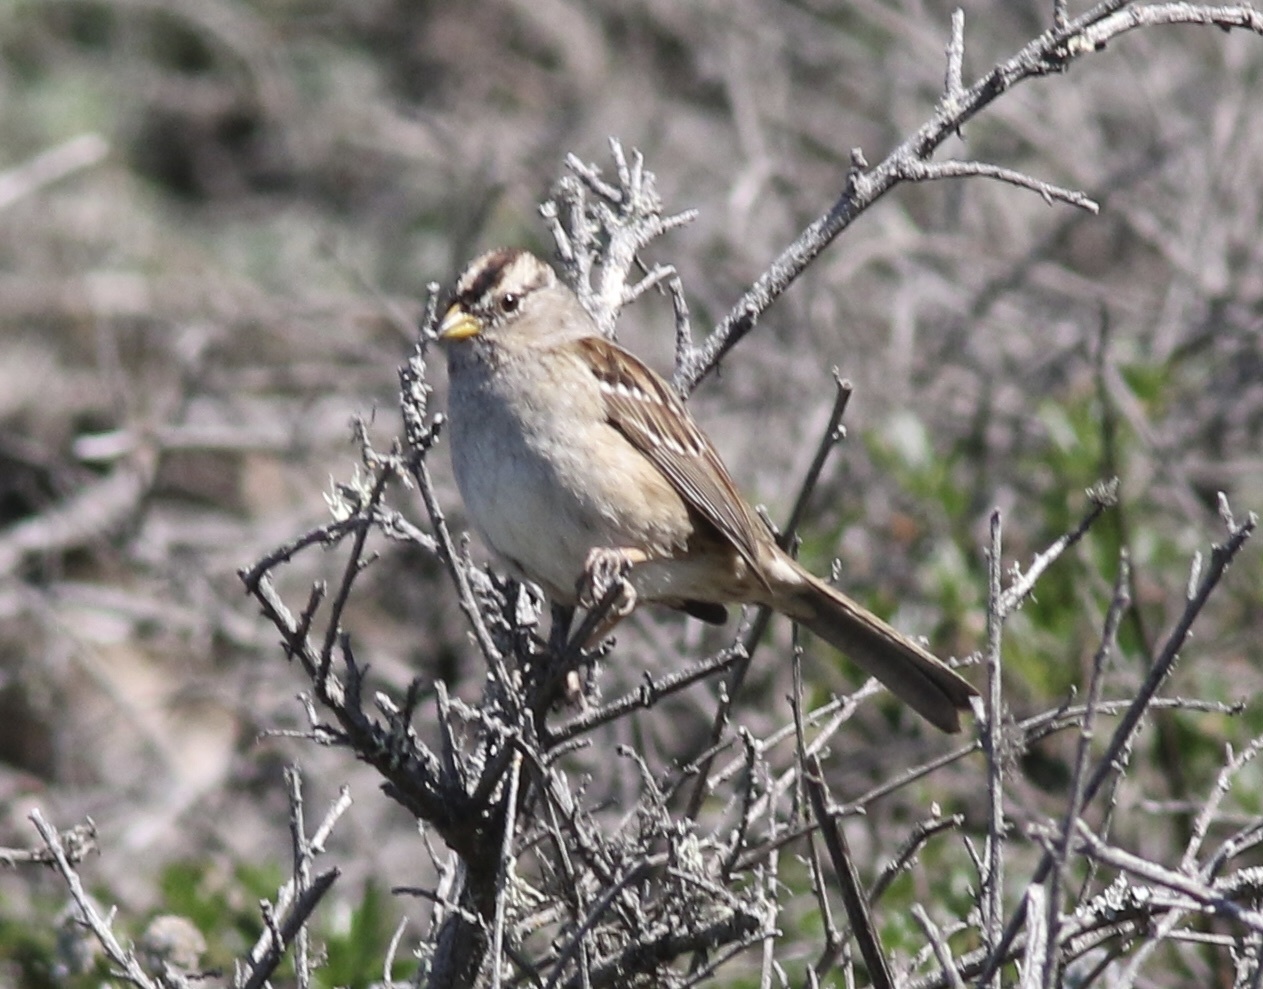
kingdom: Animalia
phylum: Chordata
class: Aves
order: Passeriformes
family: Passerellidae
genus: Zonotrichia
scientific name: Zonotrichia leucophrys
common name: White-crowned sparrow
